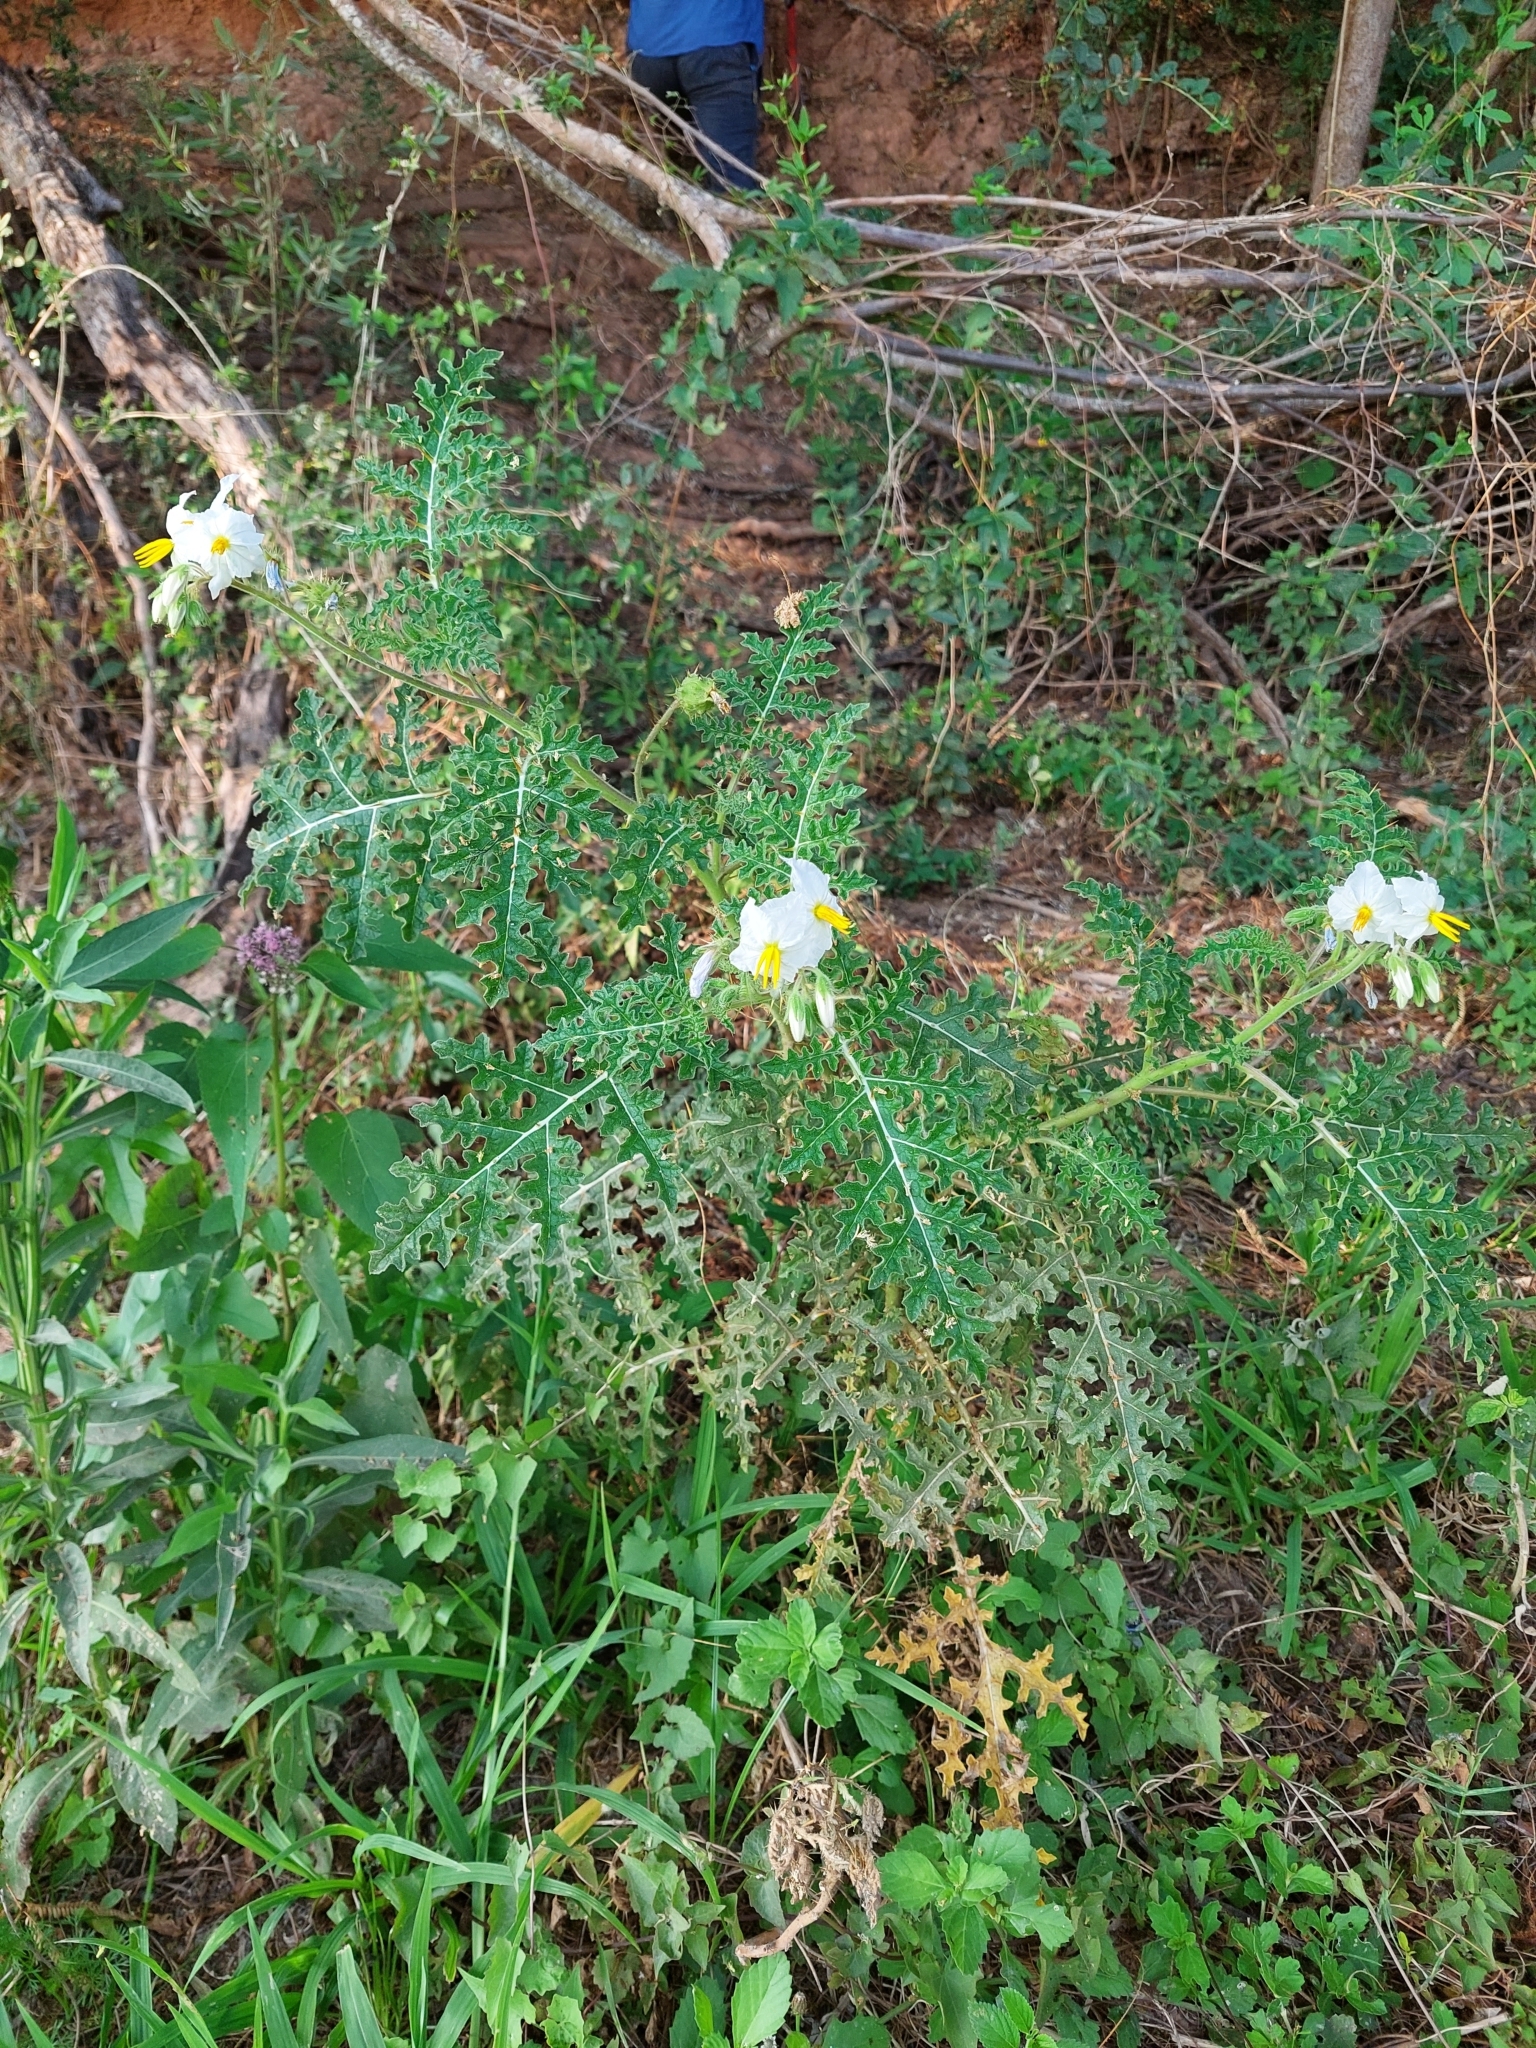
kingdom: Plantae
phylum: Tracheophyta
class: Magnoliopsida
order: Solanales
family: Solanaceae
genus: Solanum
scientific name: Solanum sisymbriifolium
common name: Red buffalo-bur
